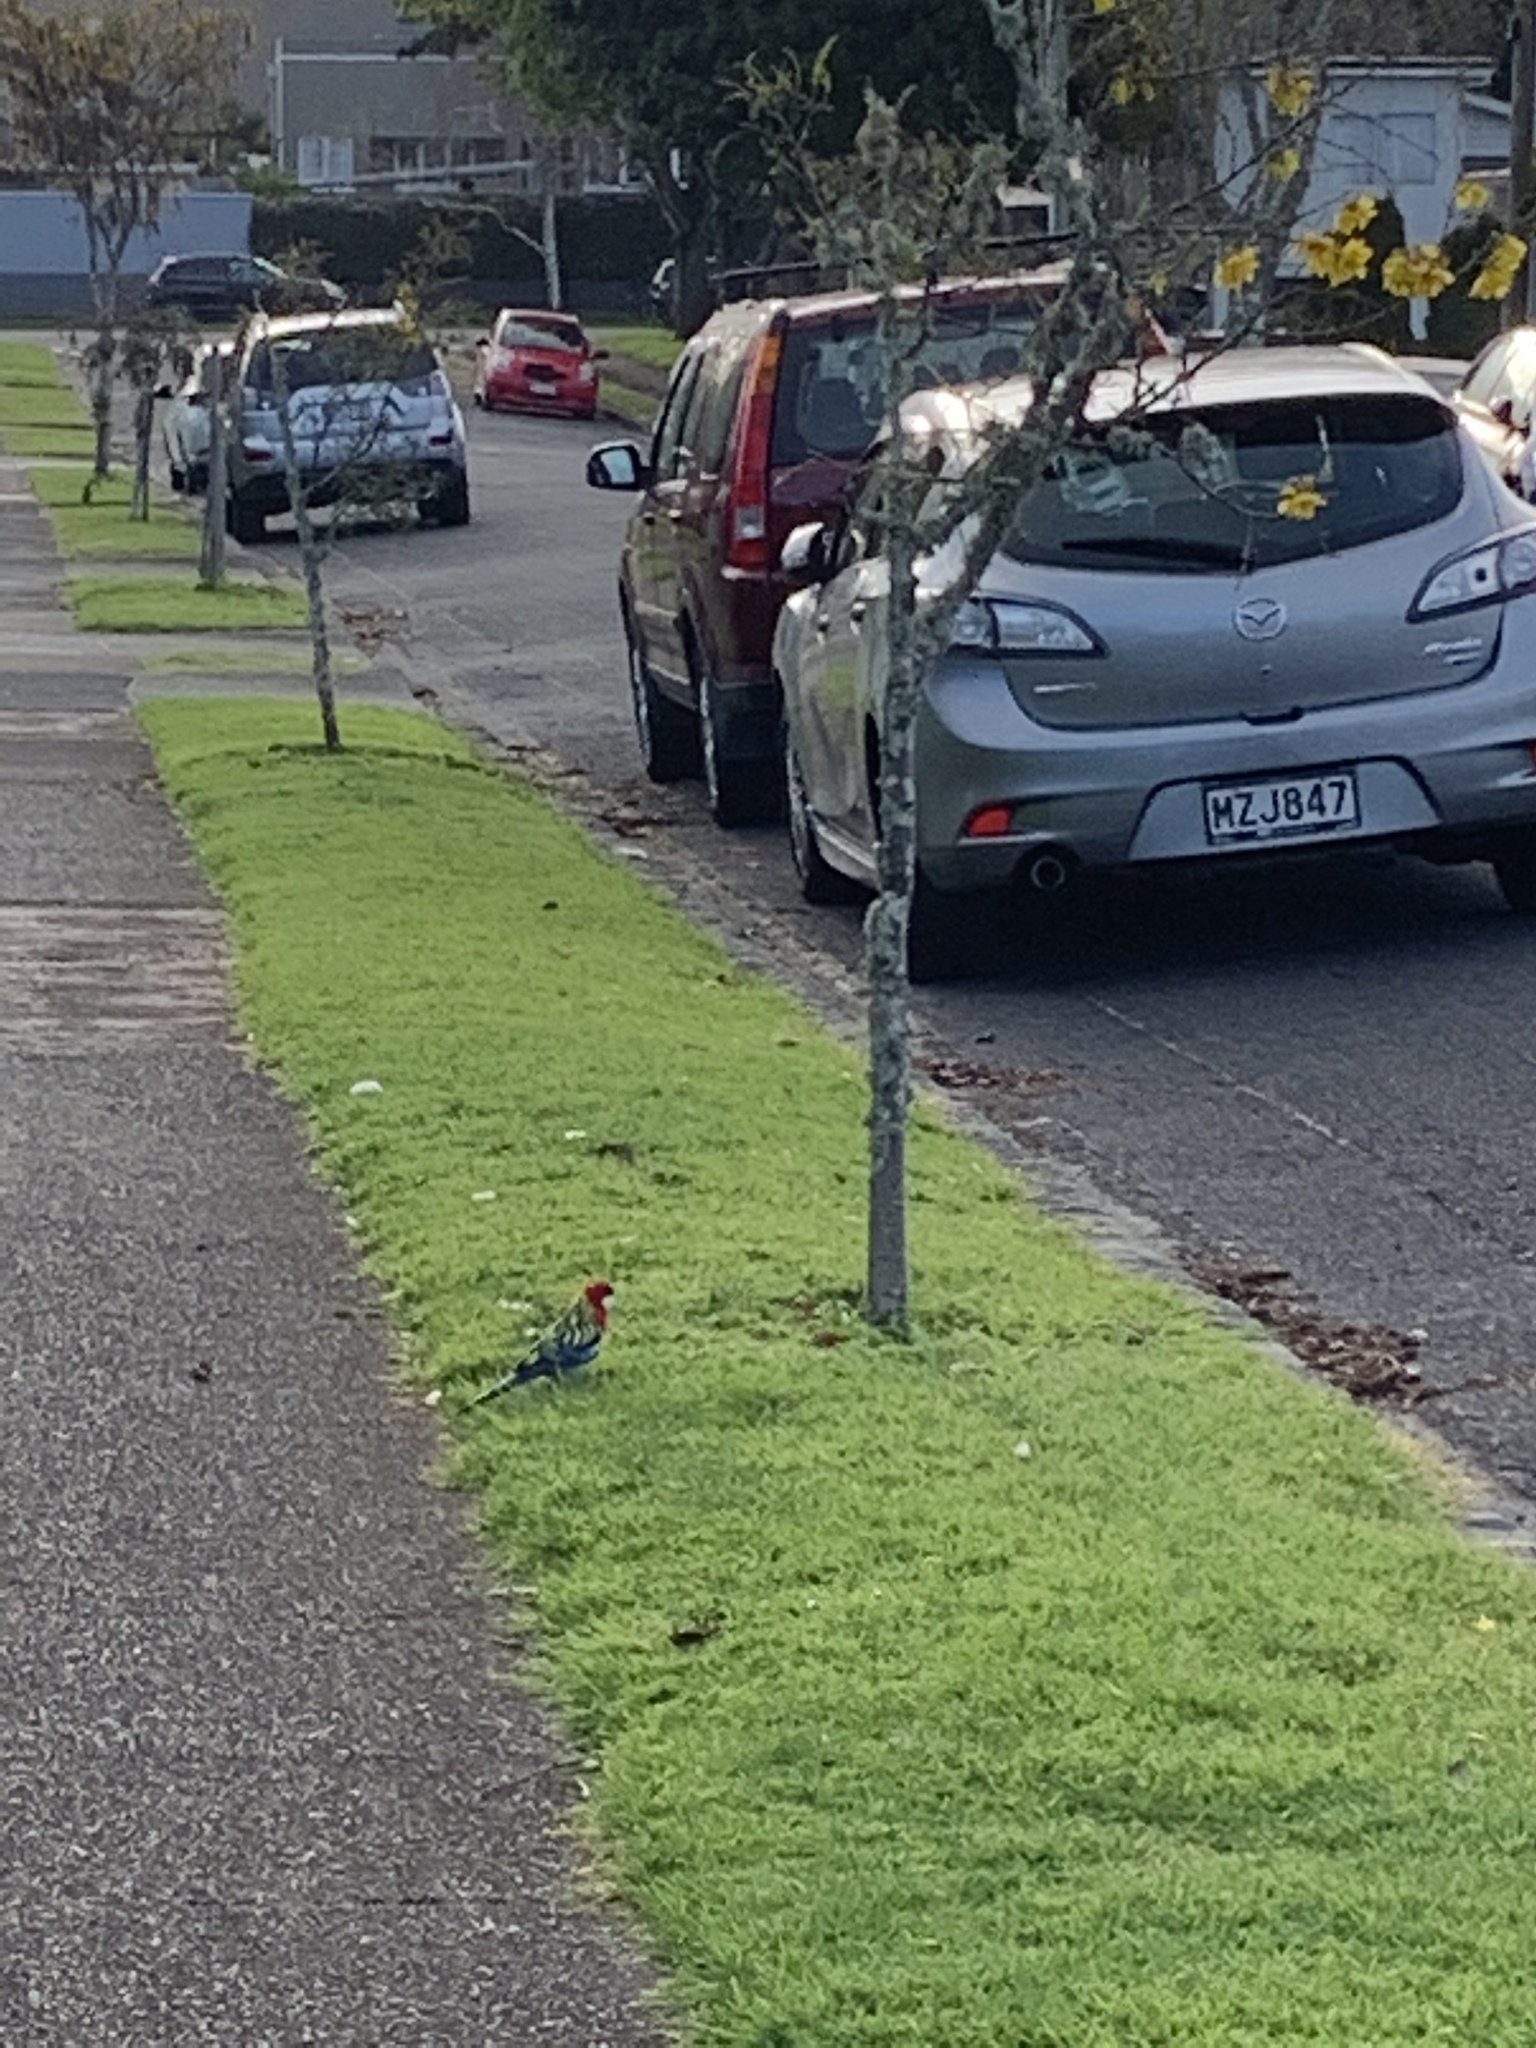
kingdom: Animalia
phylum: Chordata
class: Aves
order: Psittaciformes
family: Psittacidae
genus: Platycercus
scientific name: Platycercus eximius
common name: Eastern rosella
